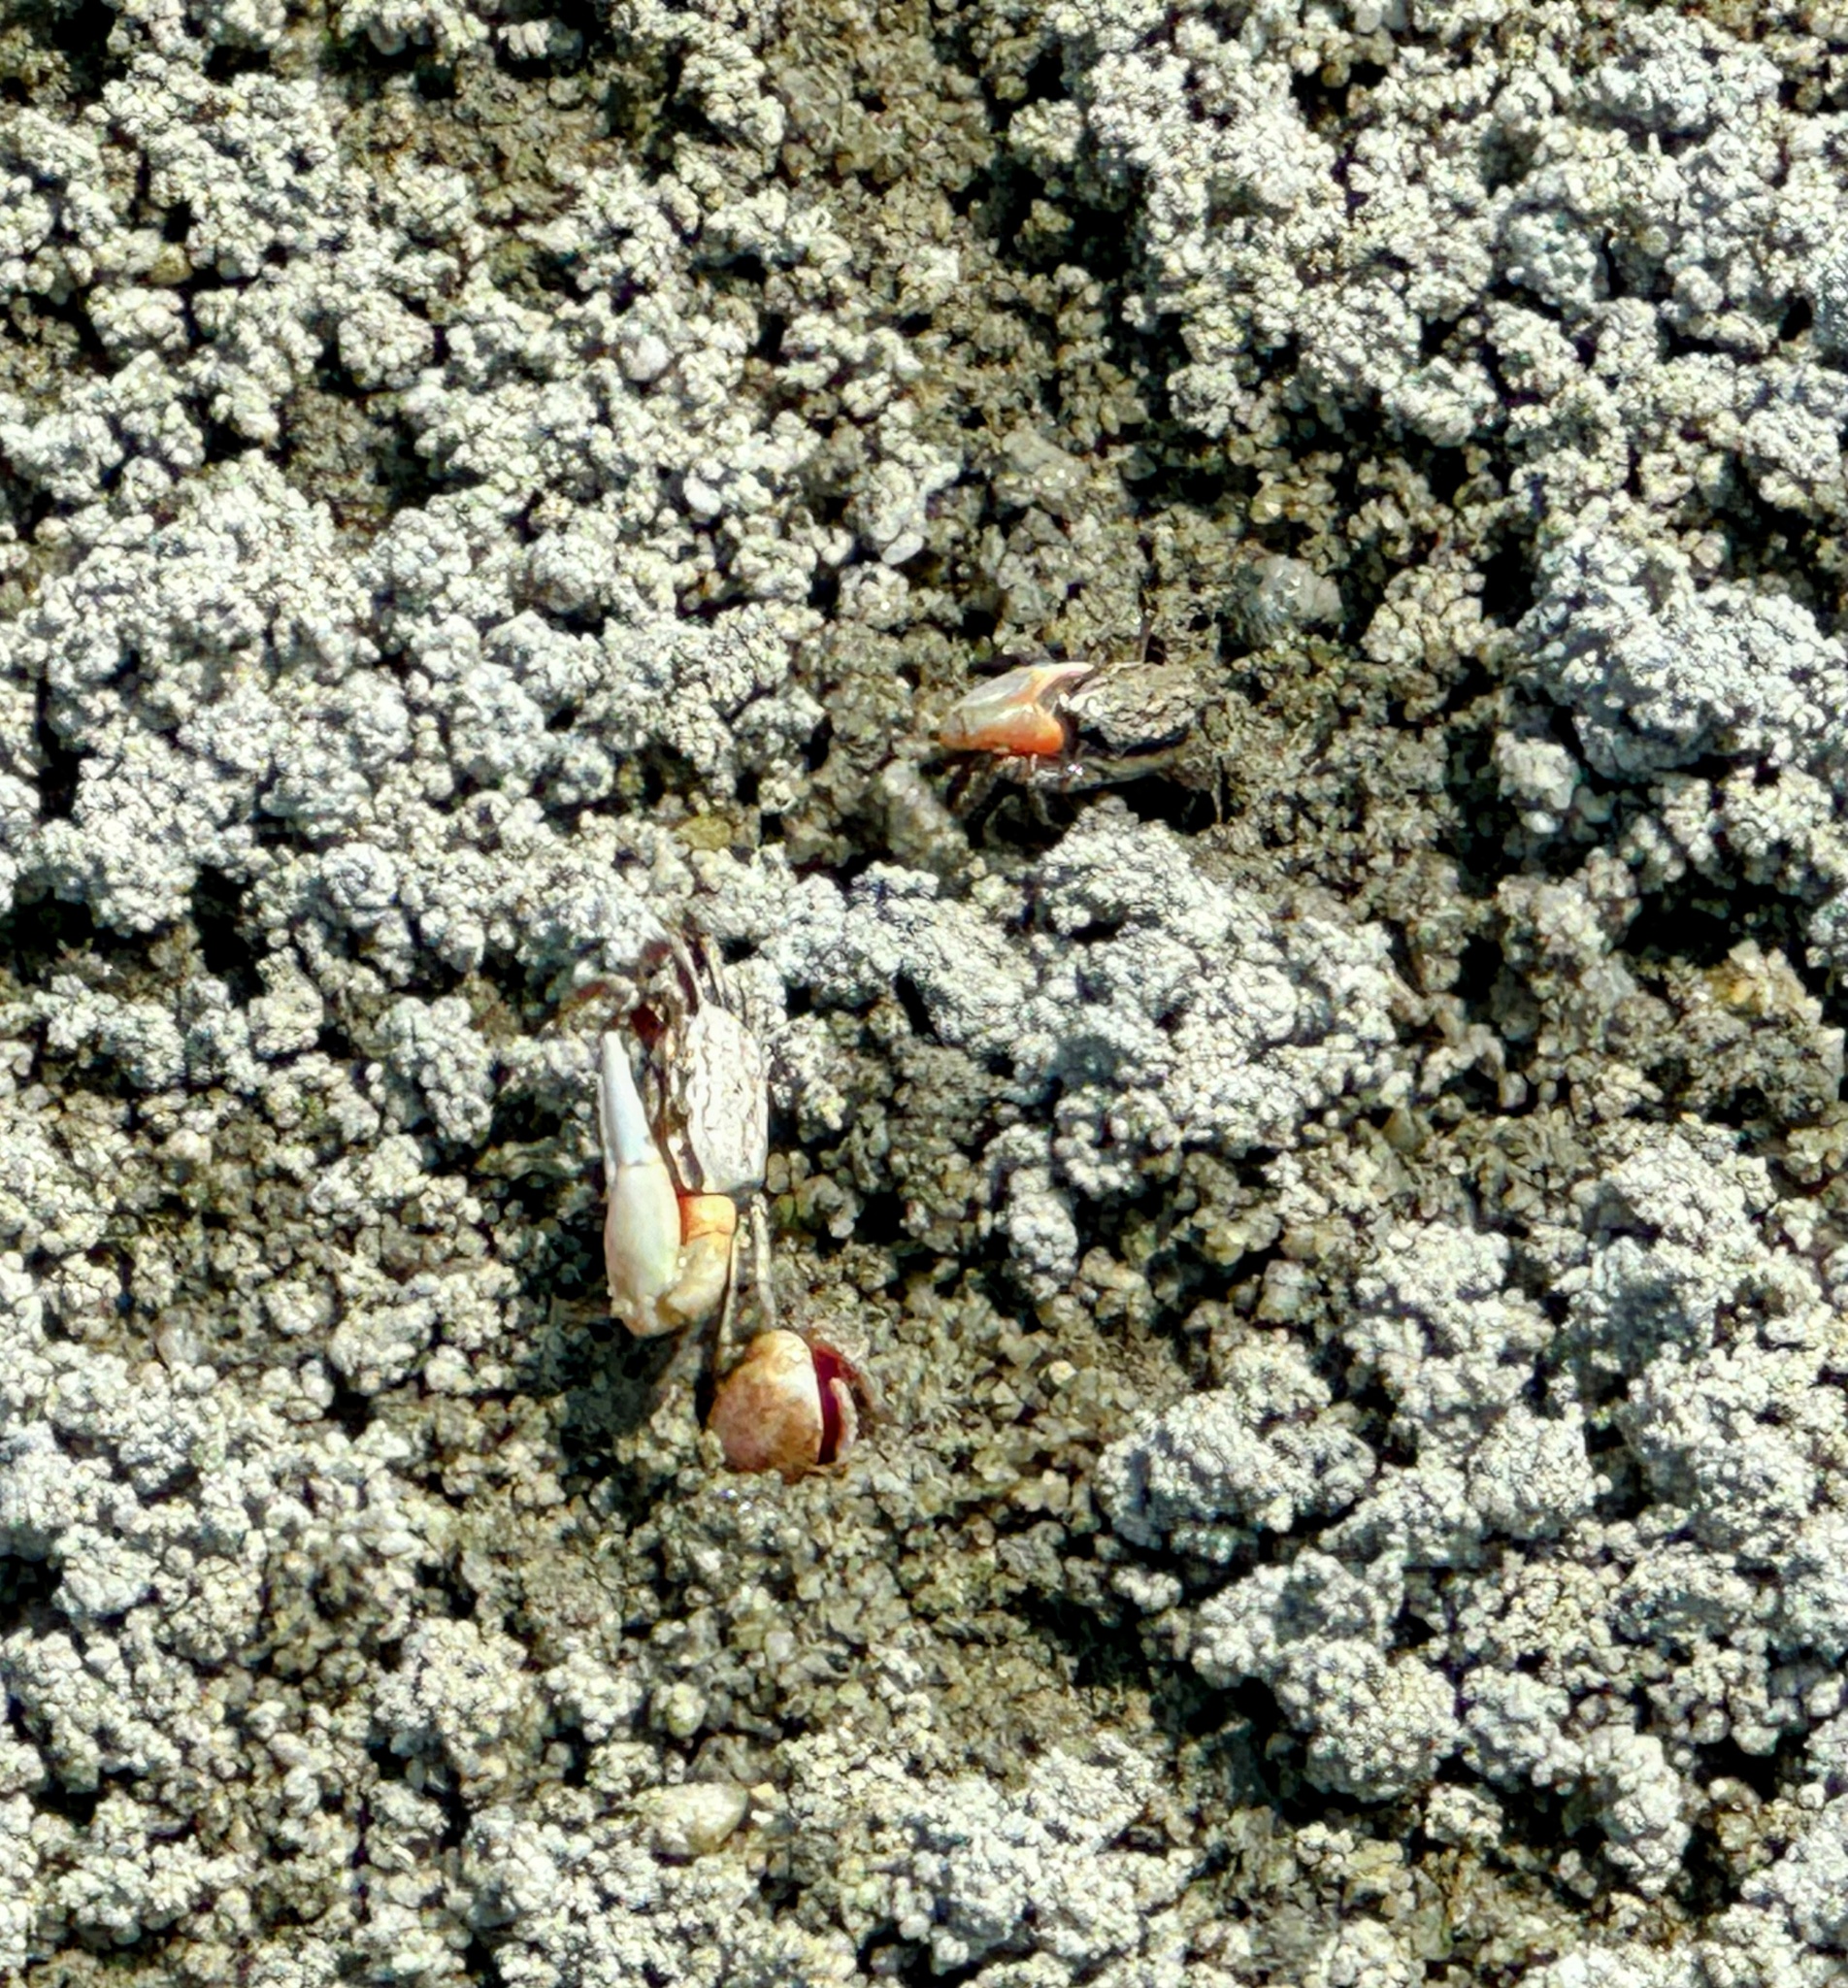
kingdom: Animalia
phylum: Arthropoda
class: Malacostraca
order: Decapoda
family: Ocypodidae
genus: Austruca
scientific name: Austruca annulipes
